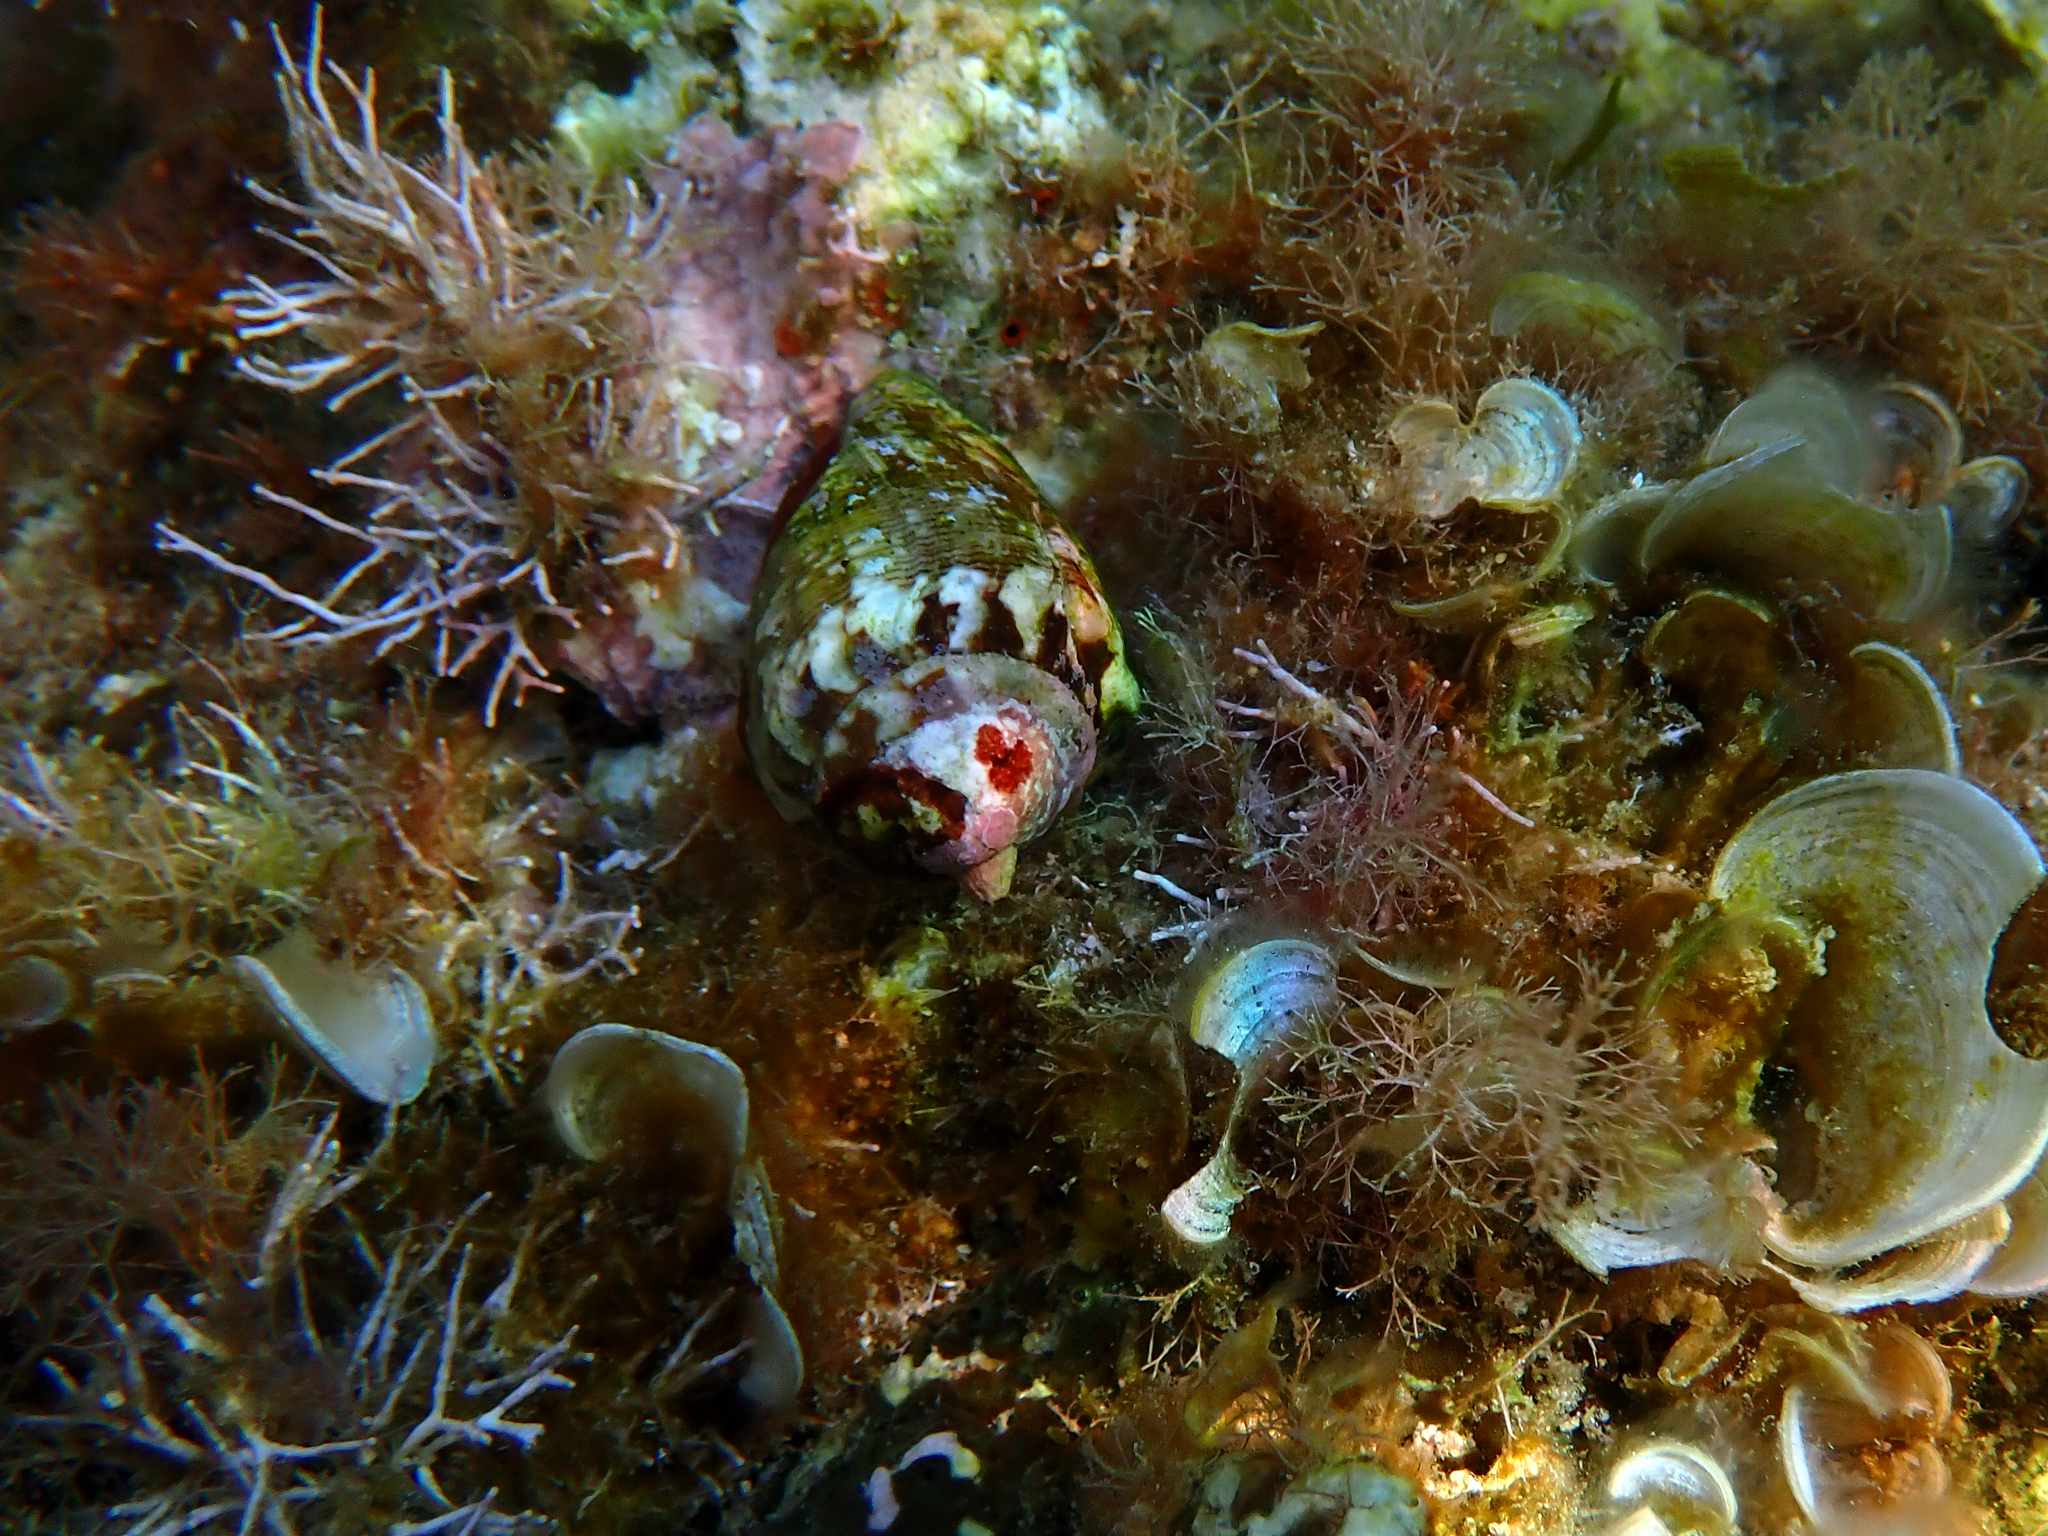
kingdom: Animalia
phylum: Mollusca
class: Gastropoda
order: Neogastropoda
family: Conidae
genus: Conus
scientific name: Conus ventricosus
